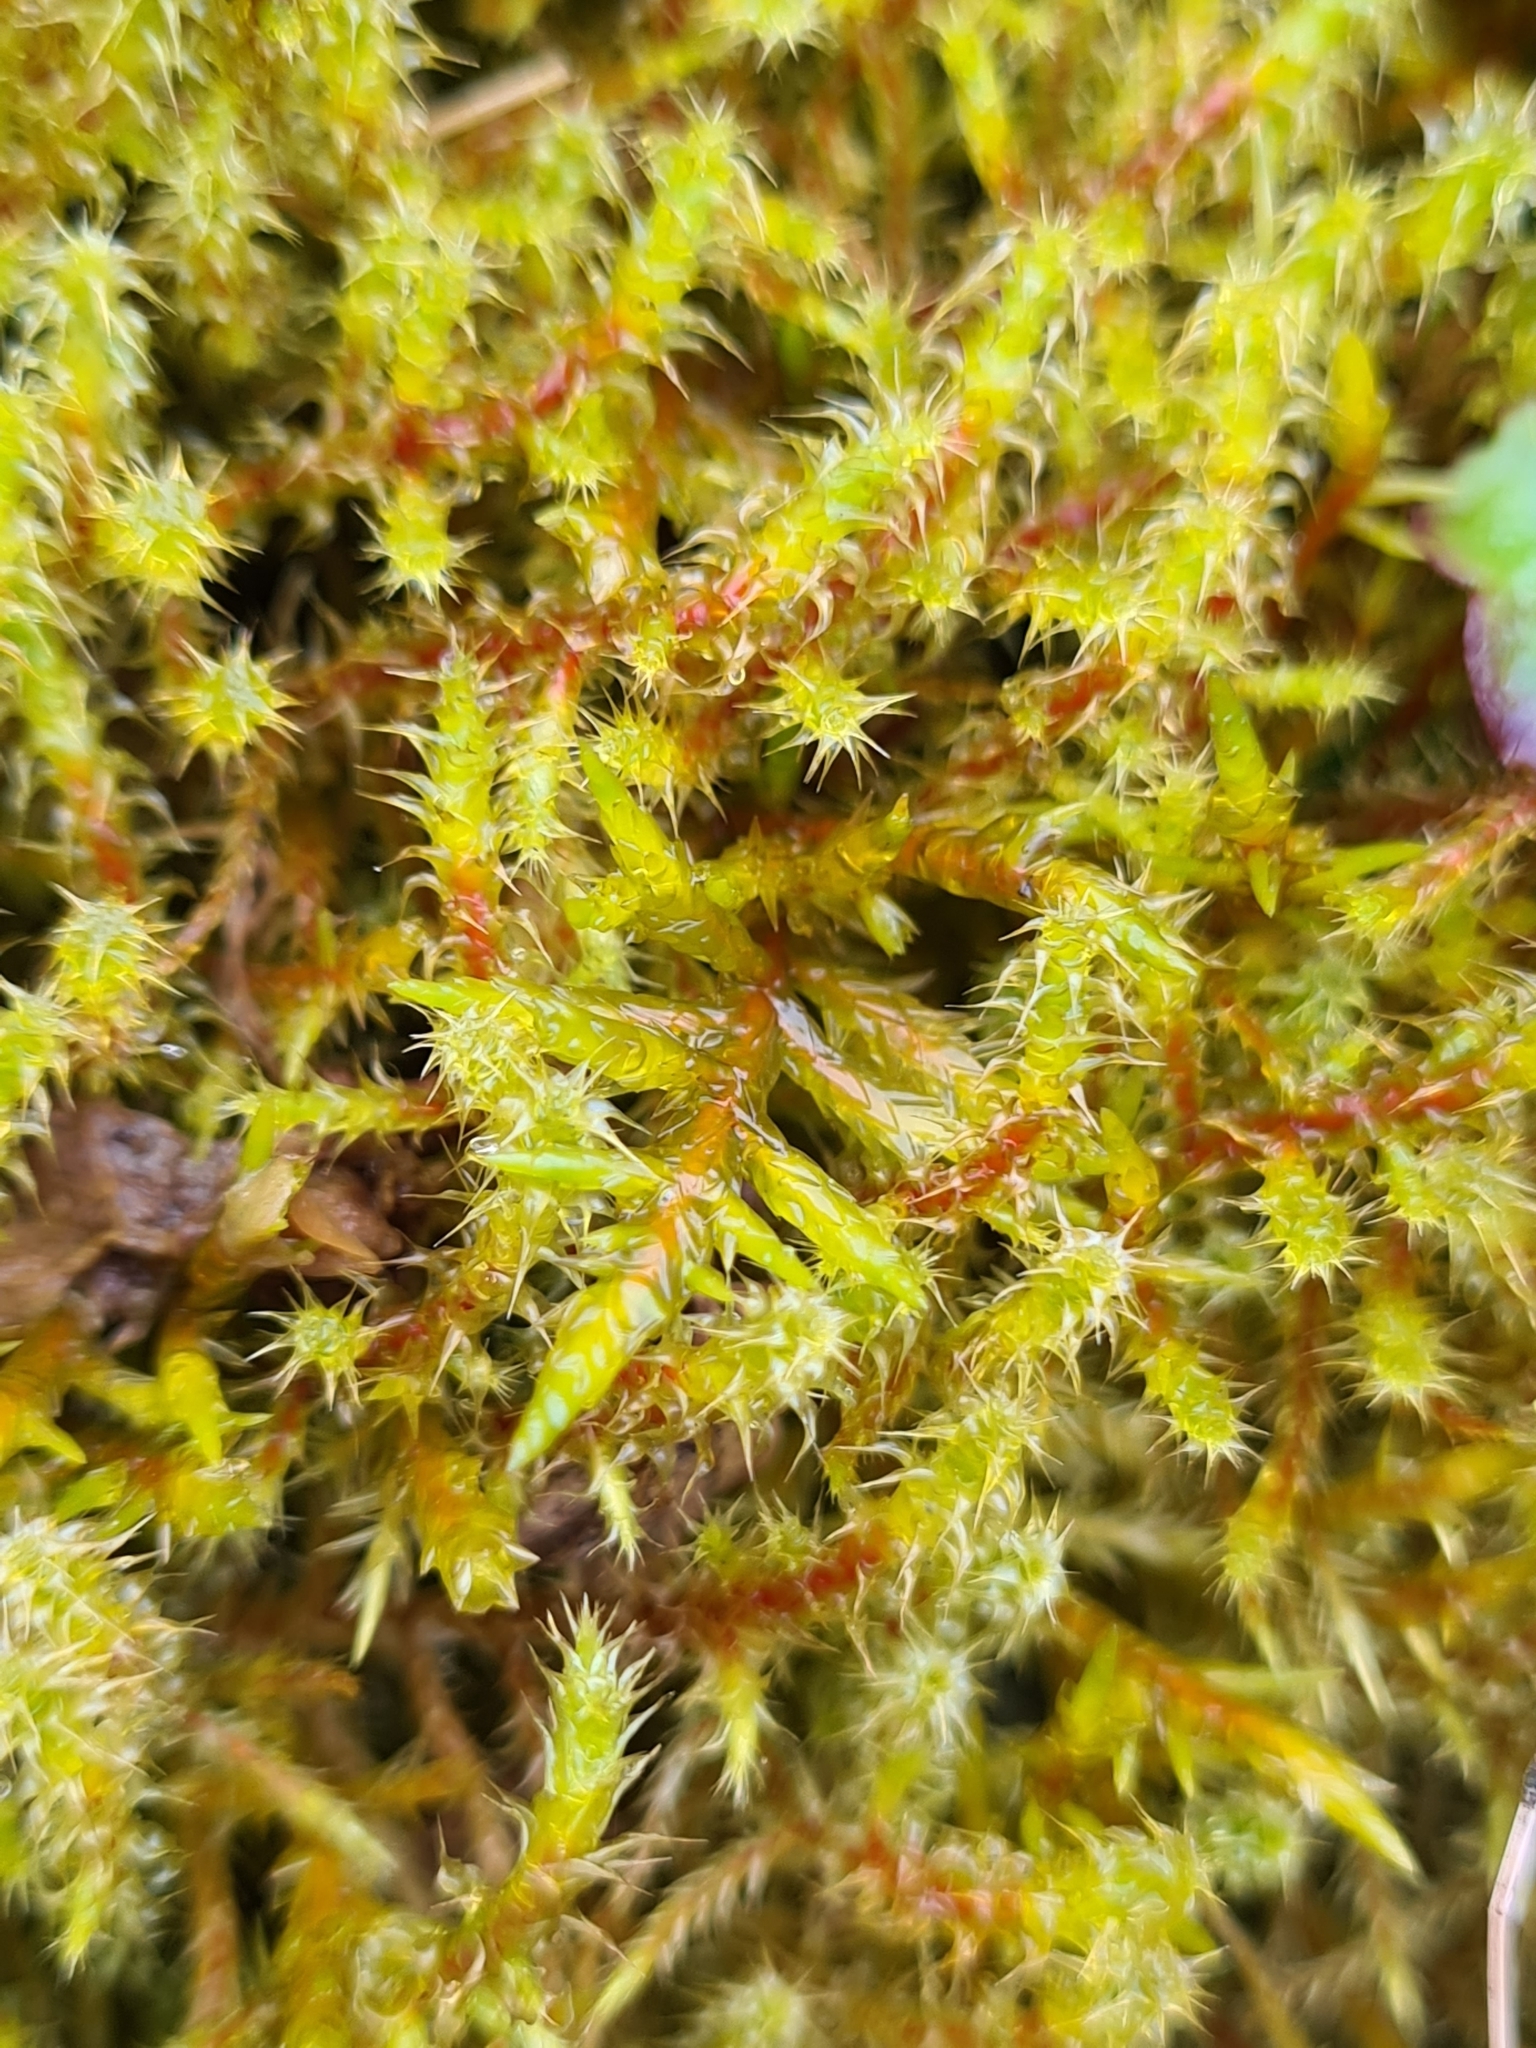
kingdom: Plantae
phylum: Bryophyta
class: Bryopsida
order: Hypnales
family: Hylocomiaceae
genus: Rhytidiadelphus
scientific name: Rhytidiadelphus squarrosus
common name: Springy turf-moss
